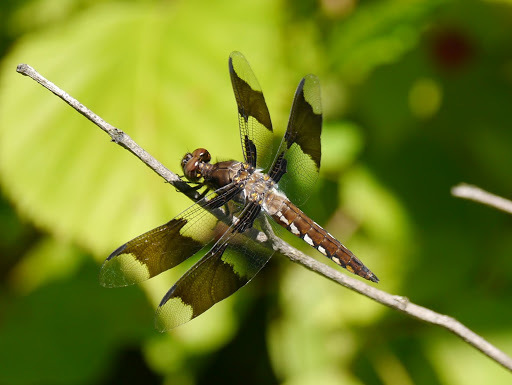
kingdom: Animalia
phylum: Arthropoda
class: Insecta
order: Odonata
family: Libellulidae
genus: Plathemis
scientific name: Plathemis lydia
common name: Common whitetail
